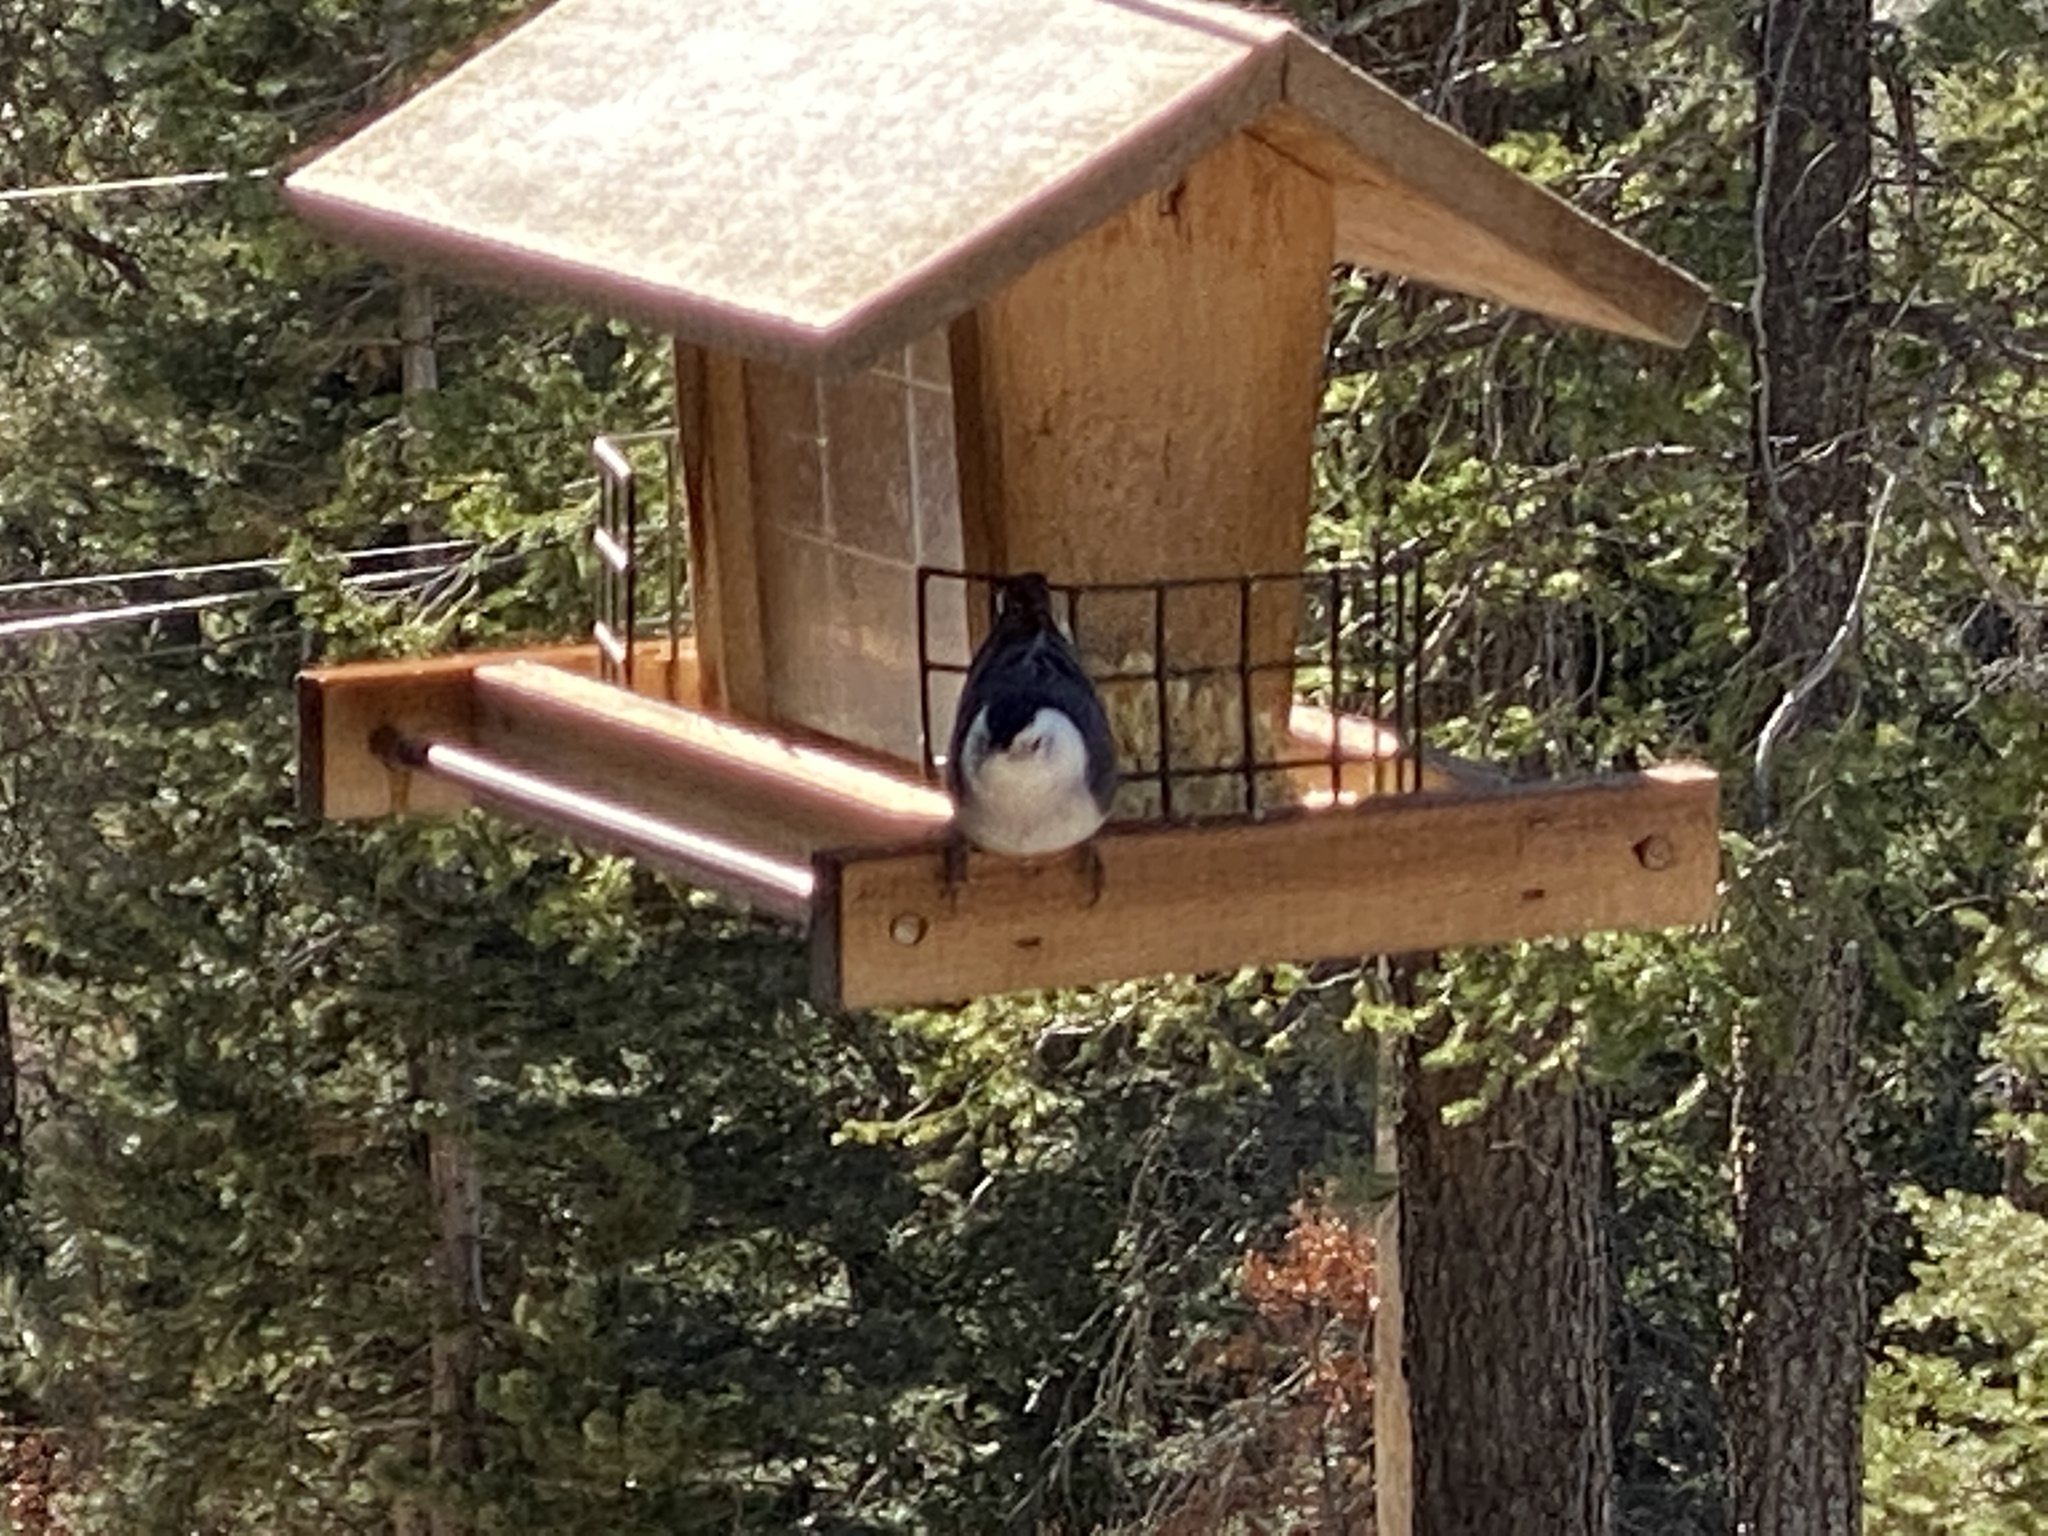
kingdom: Animalia
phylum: Chordata
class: Aves
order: Passeriformes
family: Sittidae
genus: Sitta
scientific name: Sitta carolinensis
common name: White-breasted nuthatch
